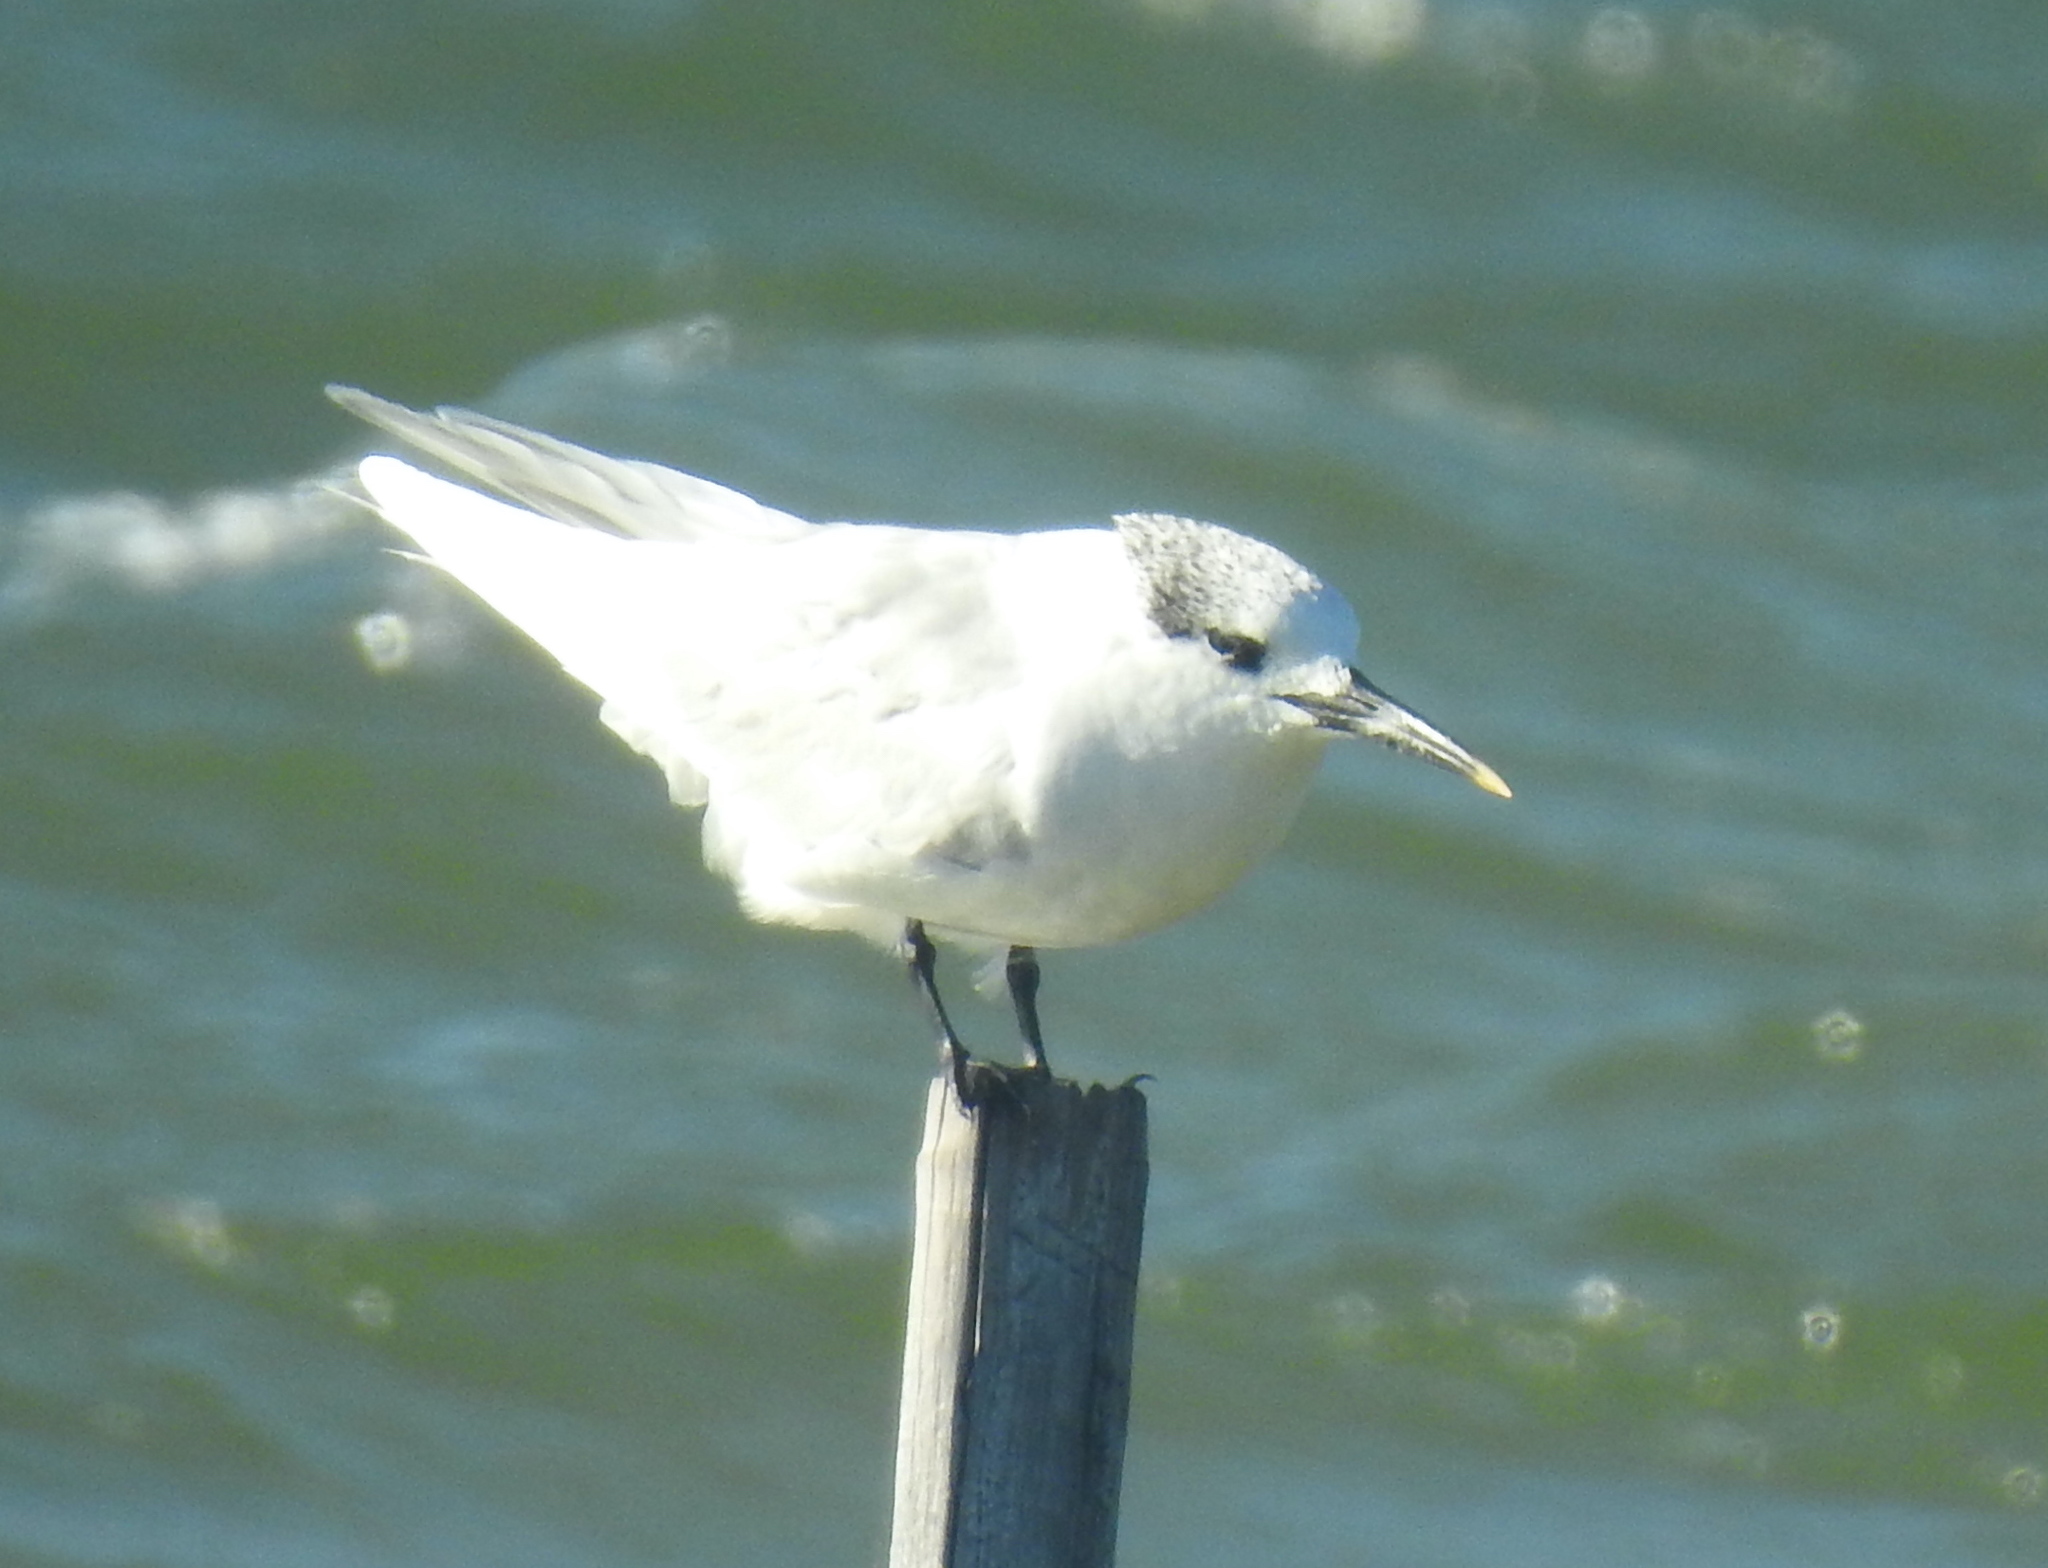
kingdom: Animalia
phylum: Chordata
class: Aves
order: Charadriiformes
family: Laridae
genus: Thalasseus
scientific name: Thalasseus sandvicensis
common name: Sandwich tern
